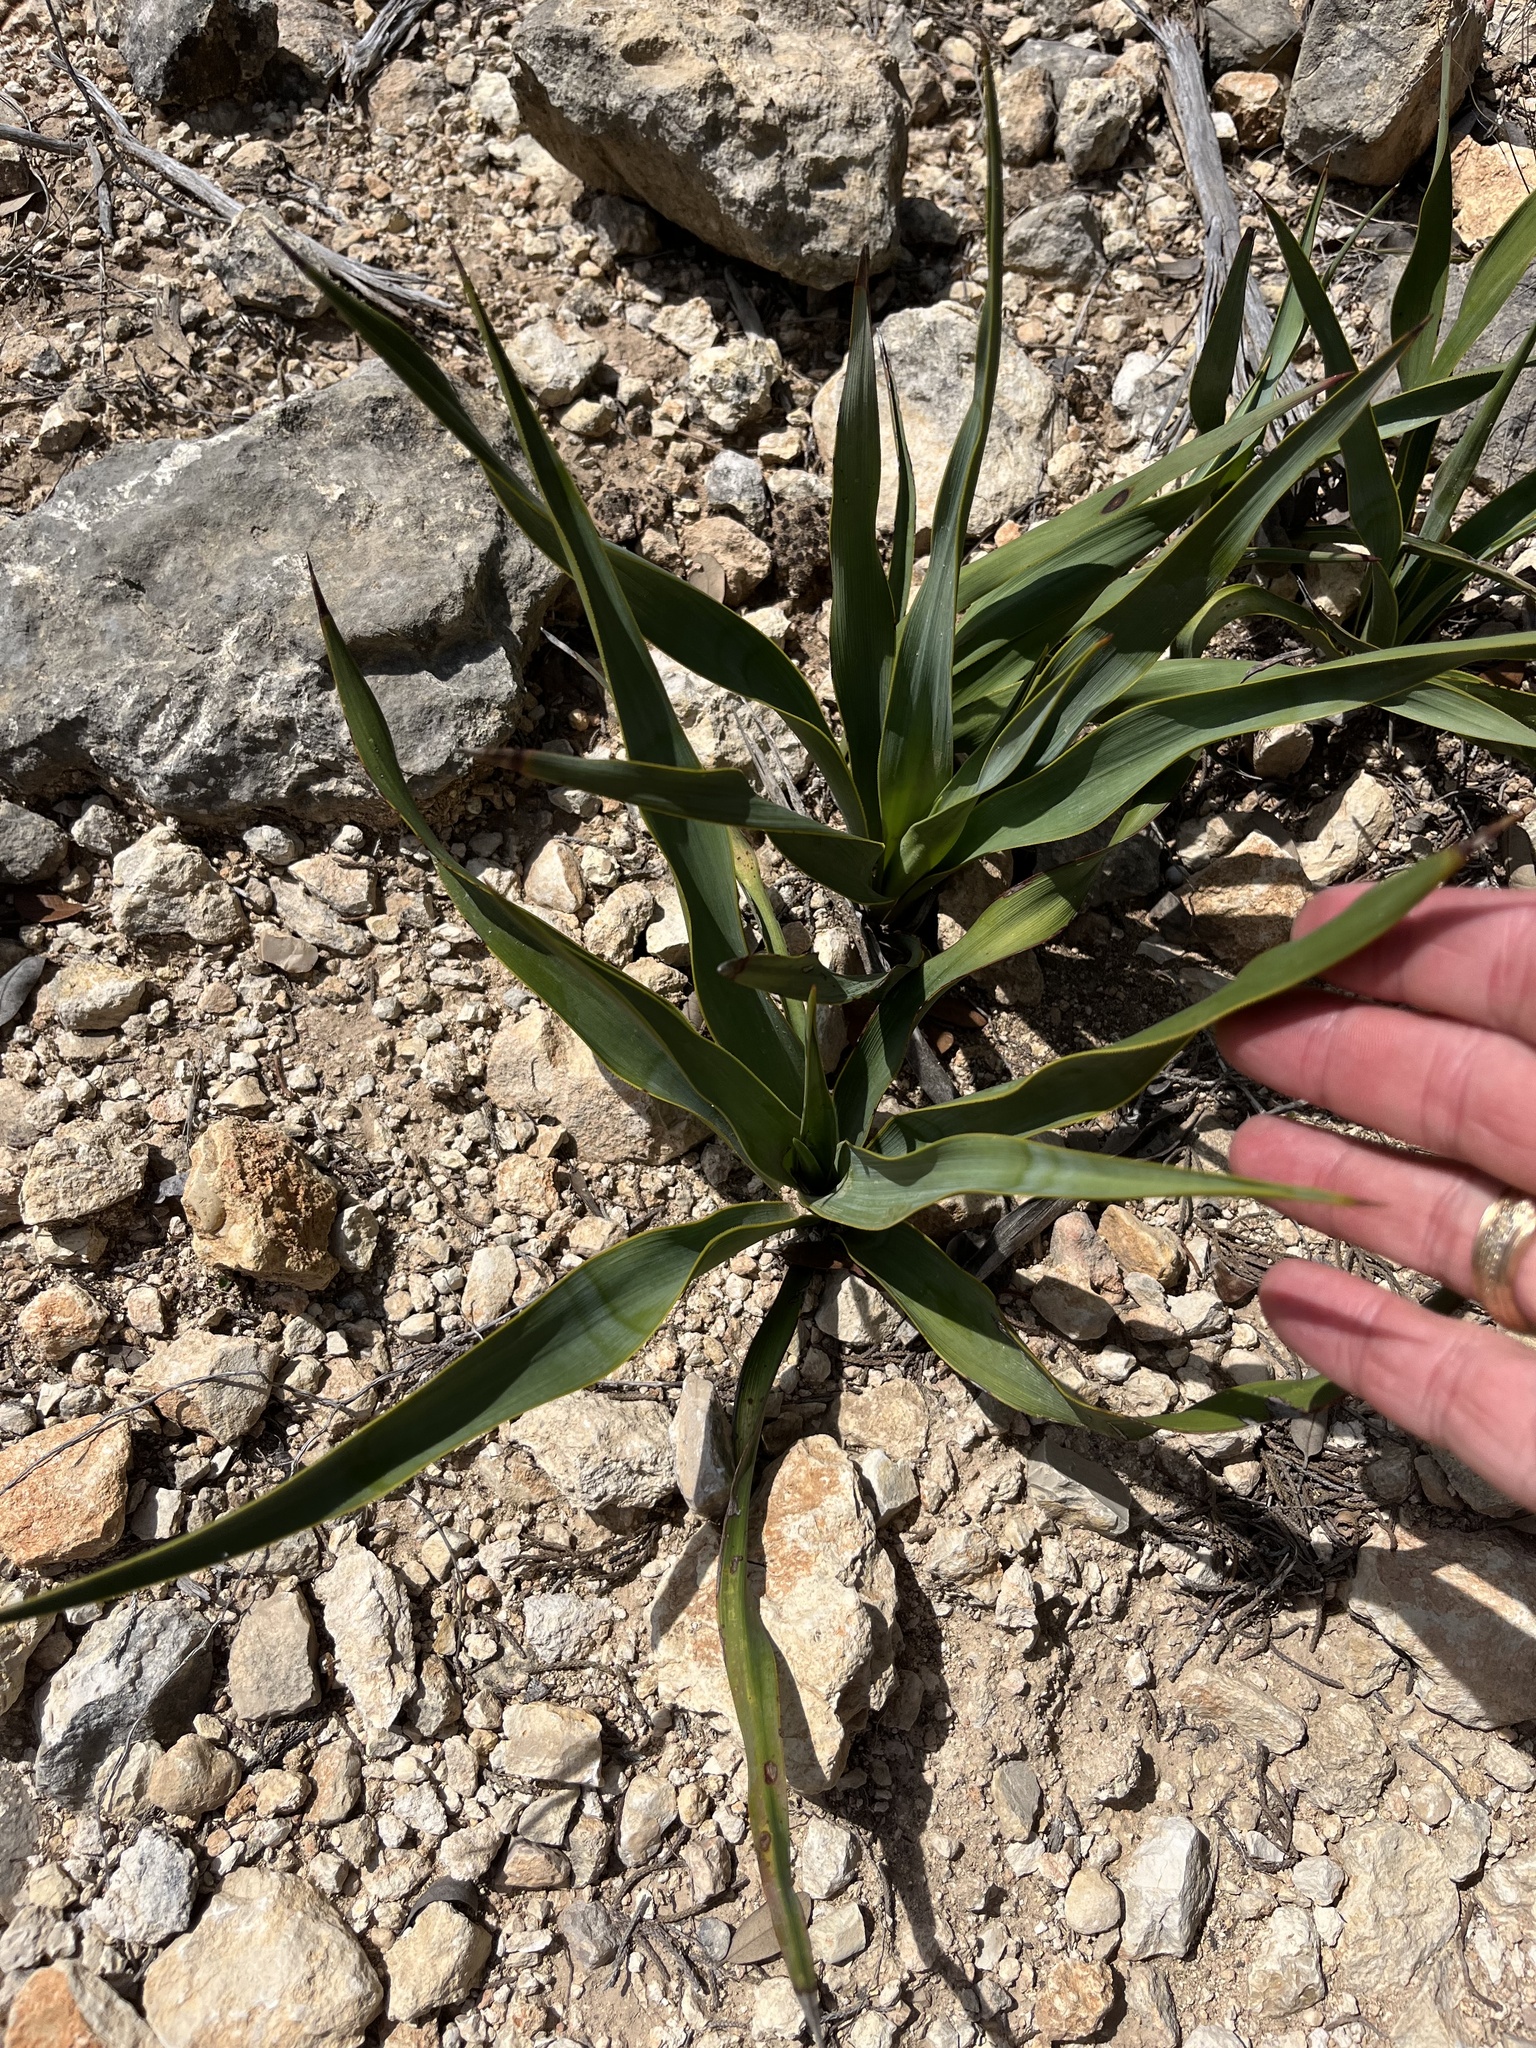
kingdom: Plantae
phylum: Tracheophyta
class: Liliopsida
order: Asparagales
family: Asparagaceae
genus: Yucca
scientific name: Yucca rupicola
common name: Twisted-leaf spanish-dagger
